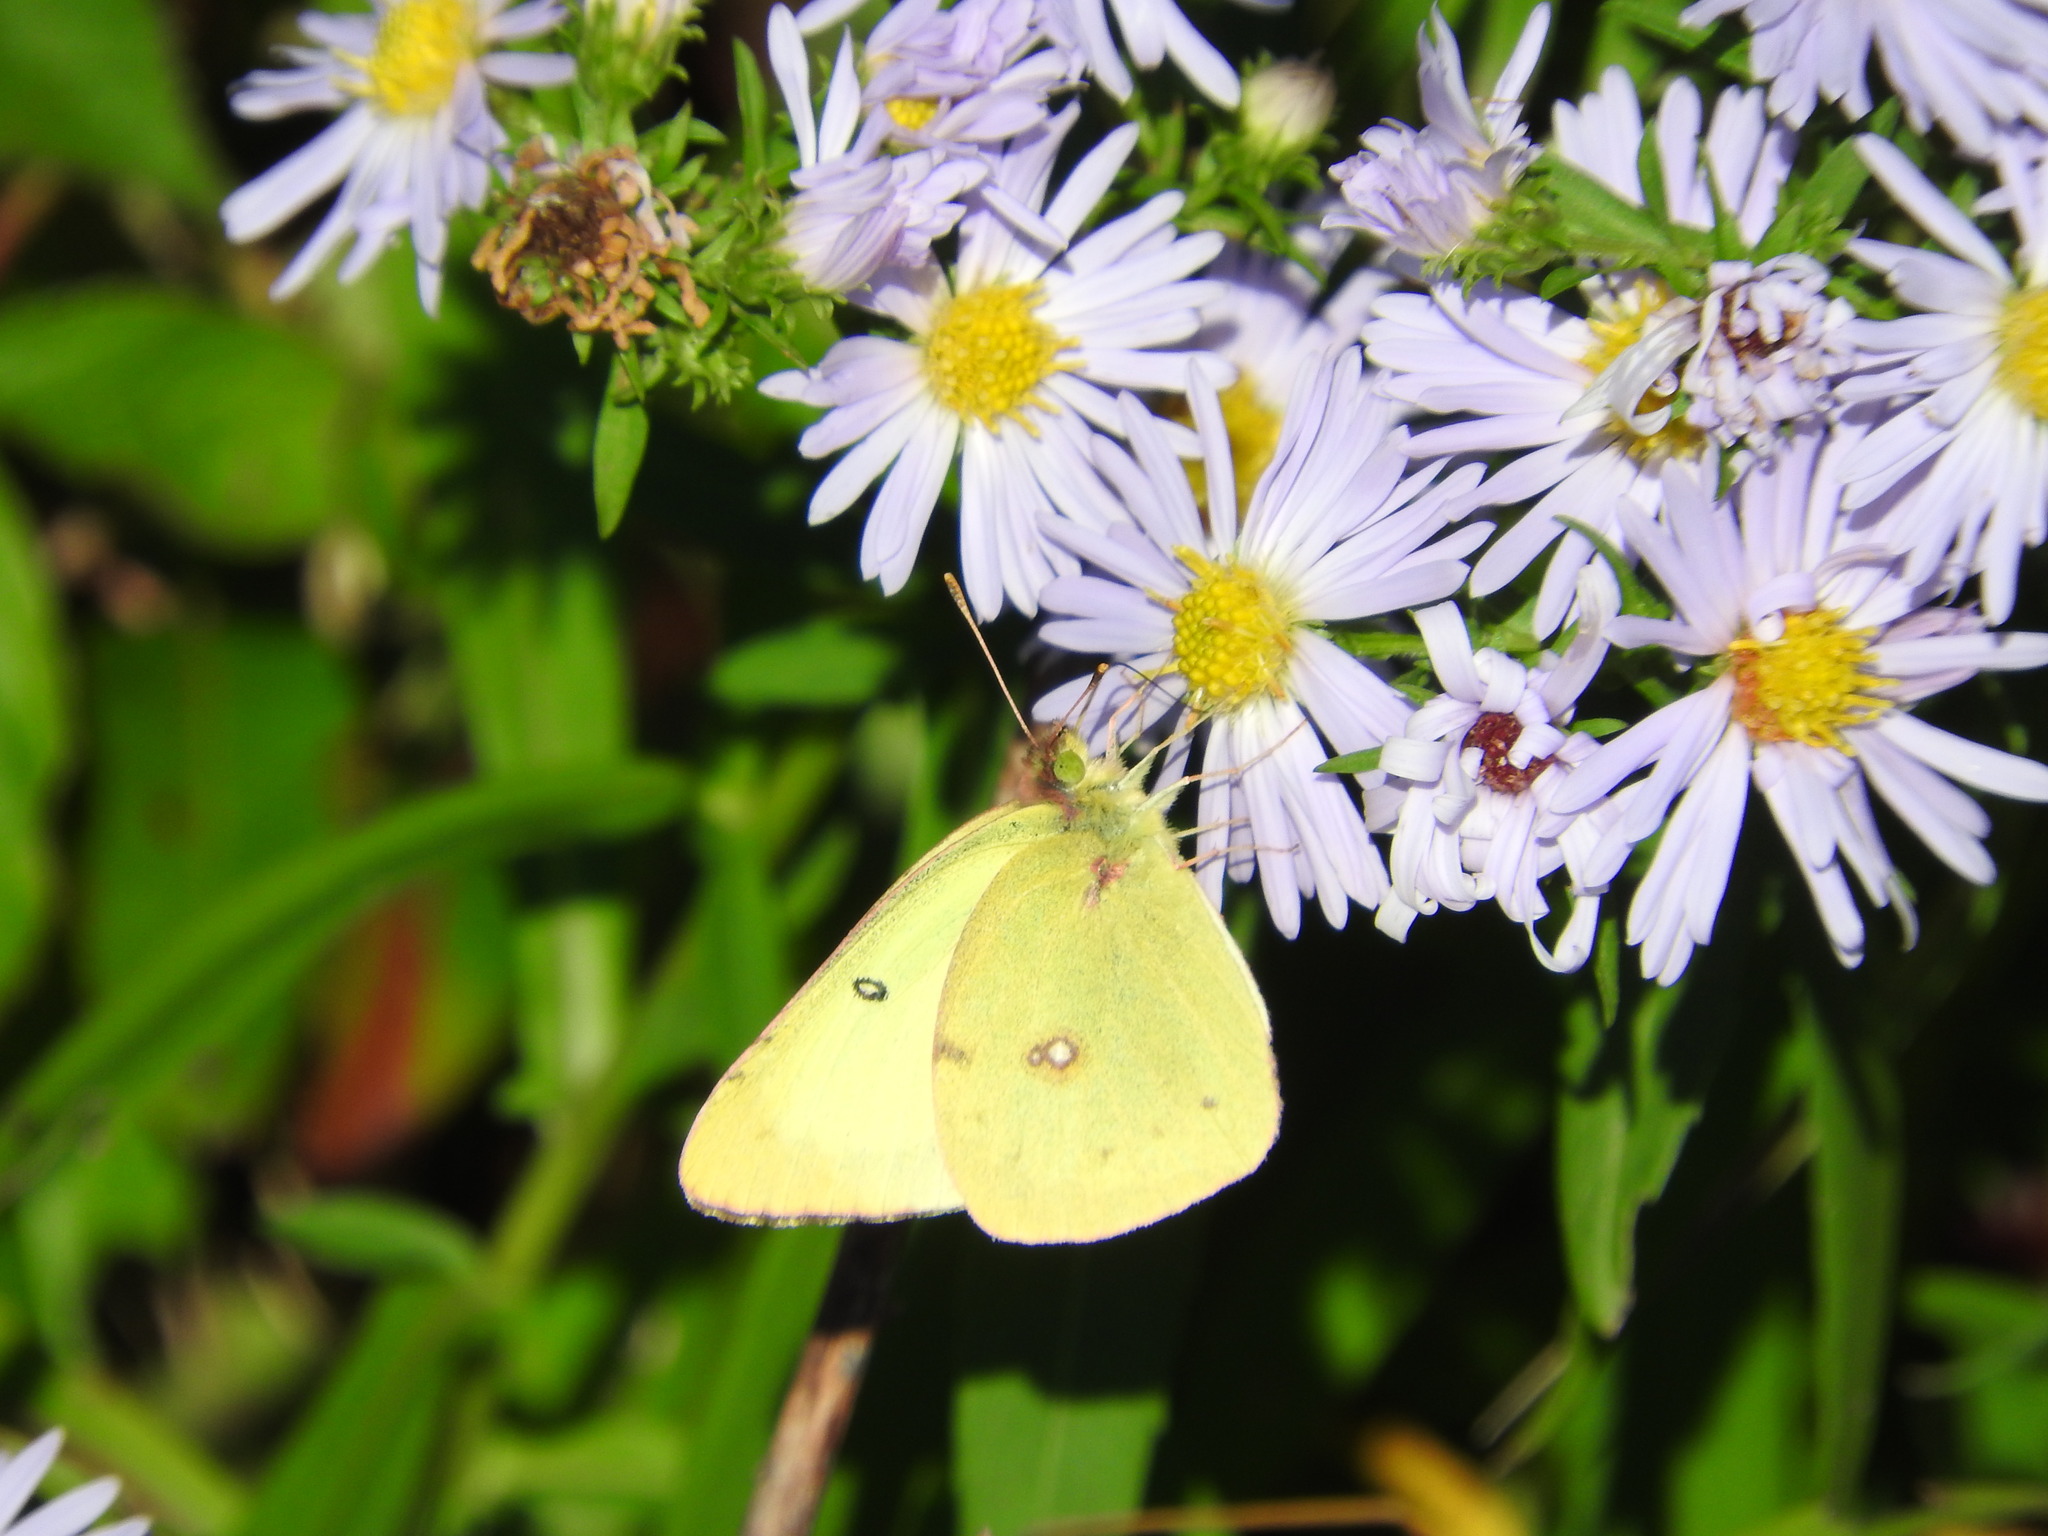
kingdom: Animalia
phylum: Arthropoda
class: Insecta
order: Lepidoptera
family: Pieridae
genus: Colias
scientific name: Colias philodice
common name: Clouded sulphur
